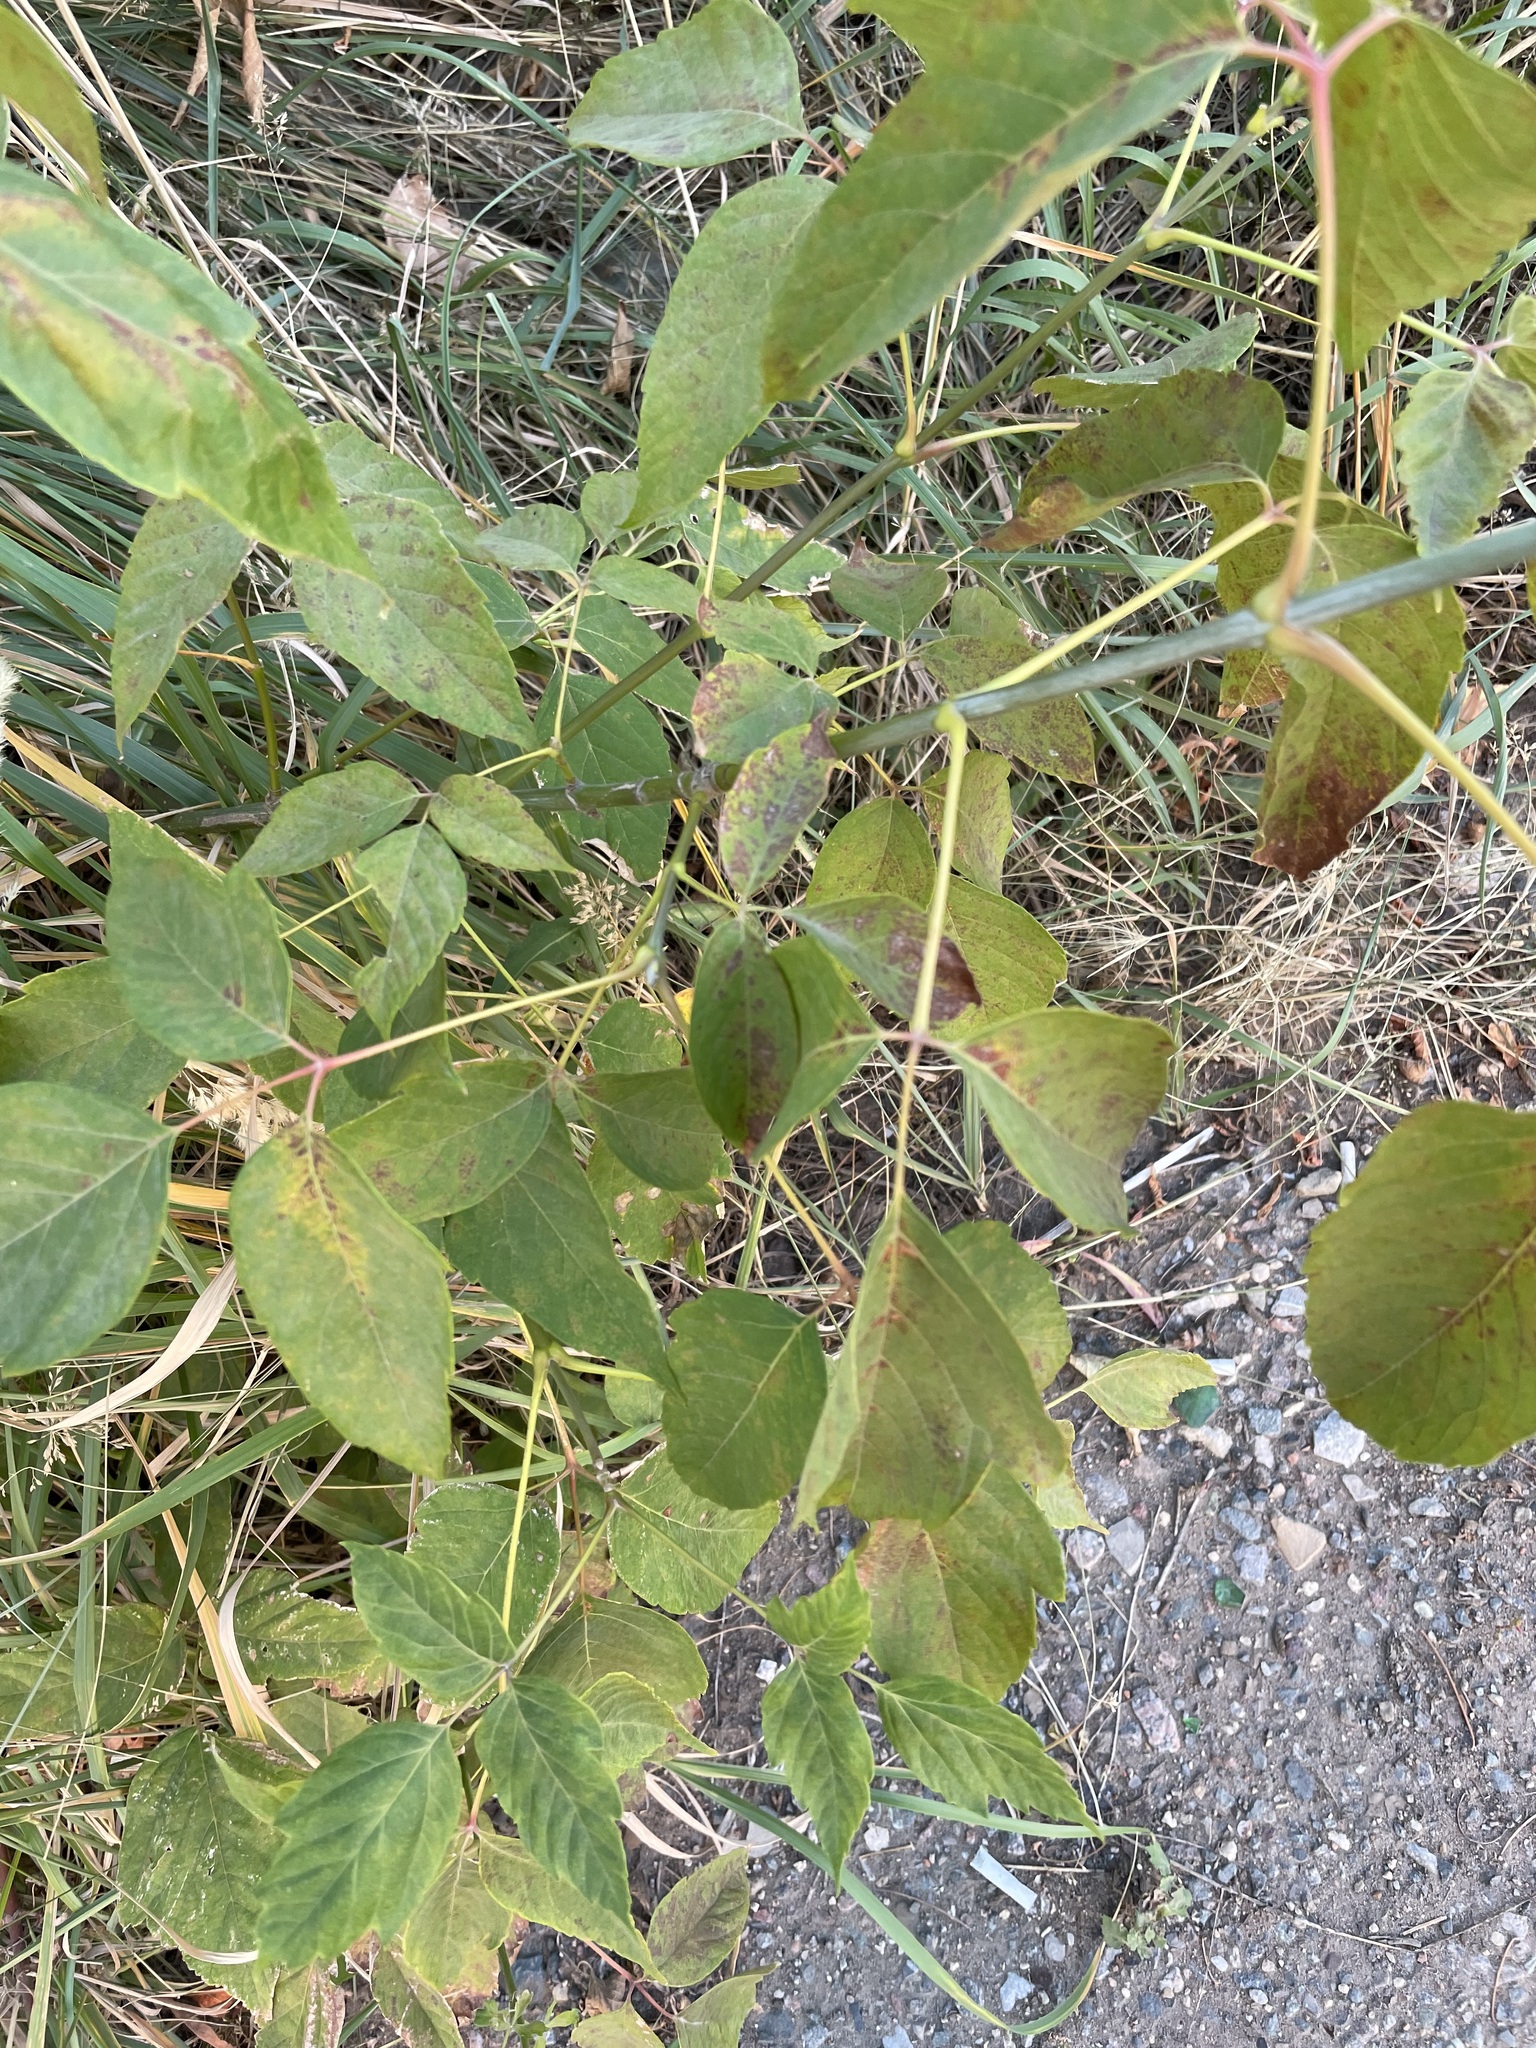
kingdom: Plantae
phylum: Tracheophyta
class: Magnoliopsida
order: Sapindales
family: Sapindaceae
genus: Acer
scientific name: Acer negundo
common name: Ashleaf maple
